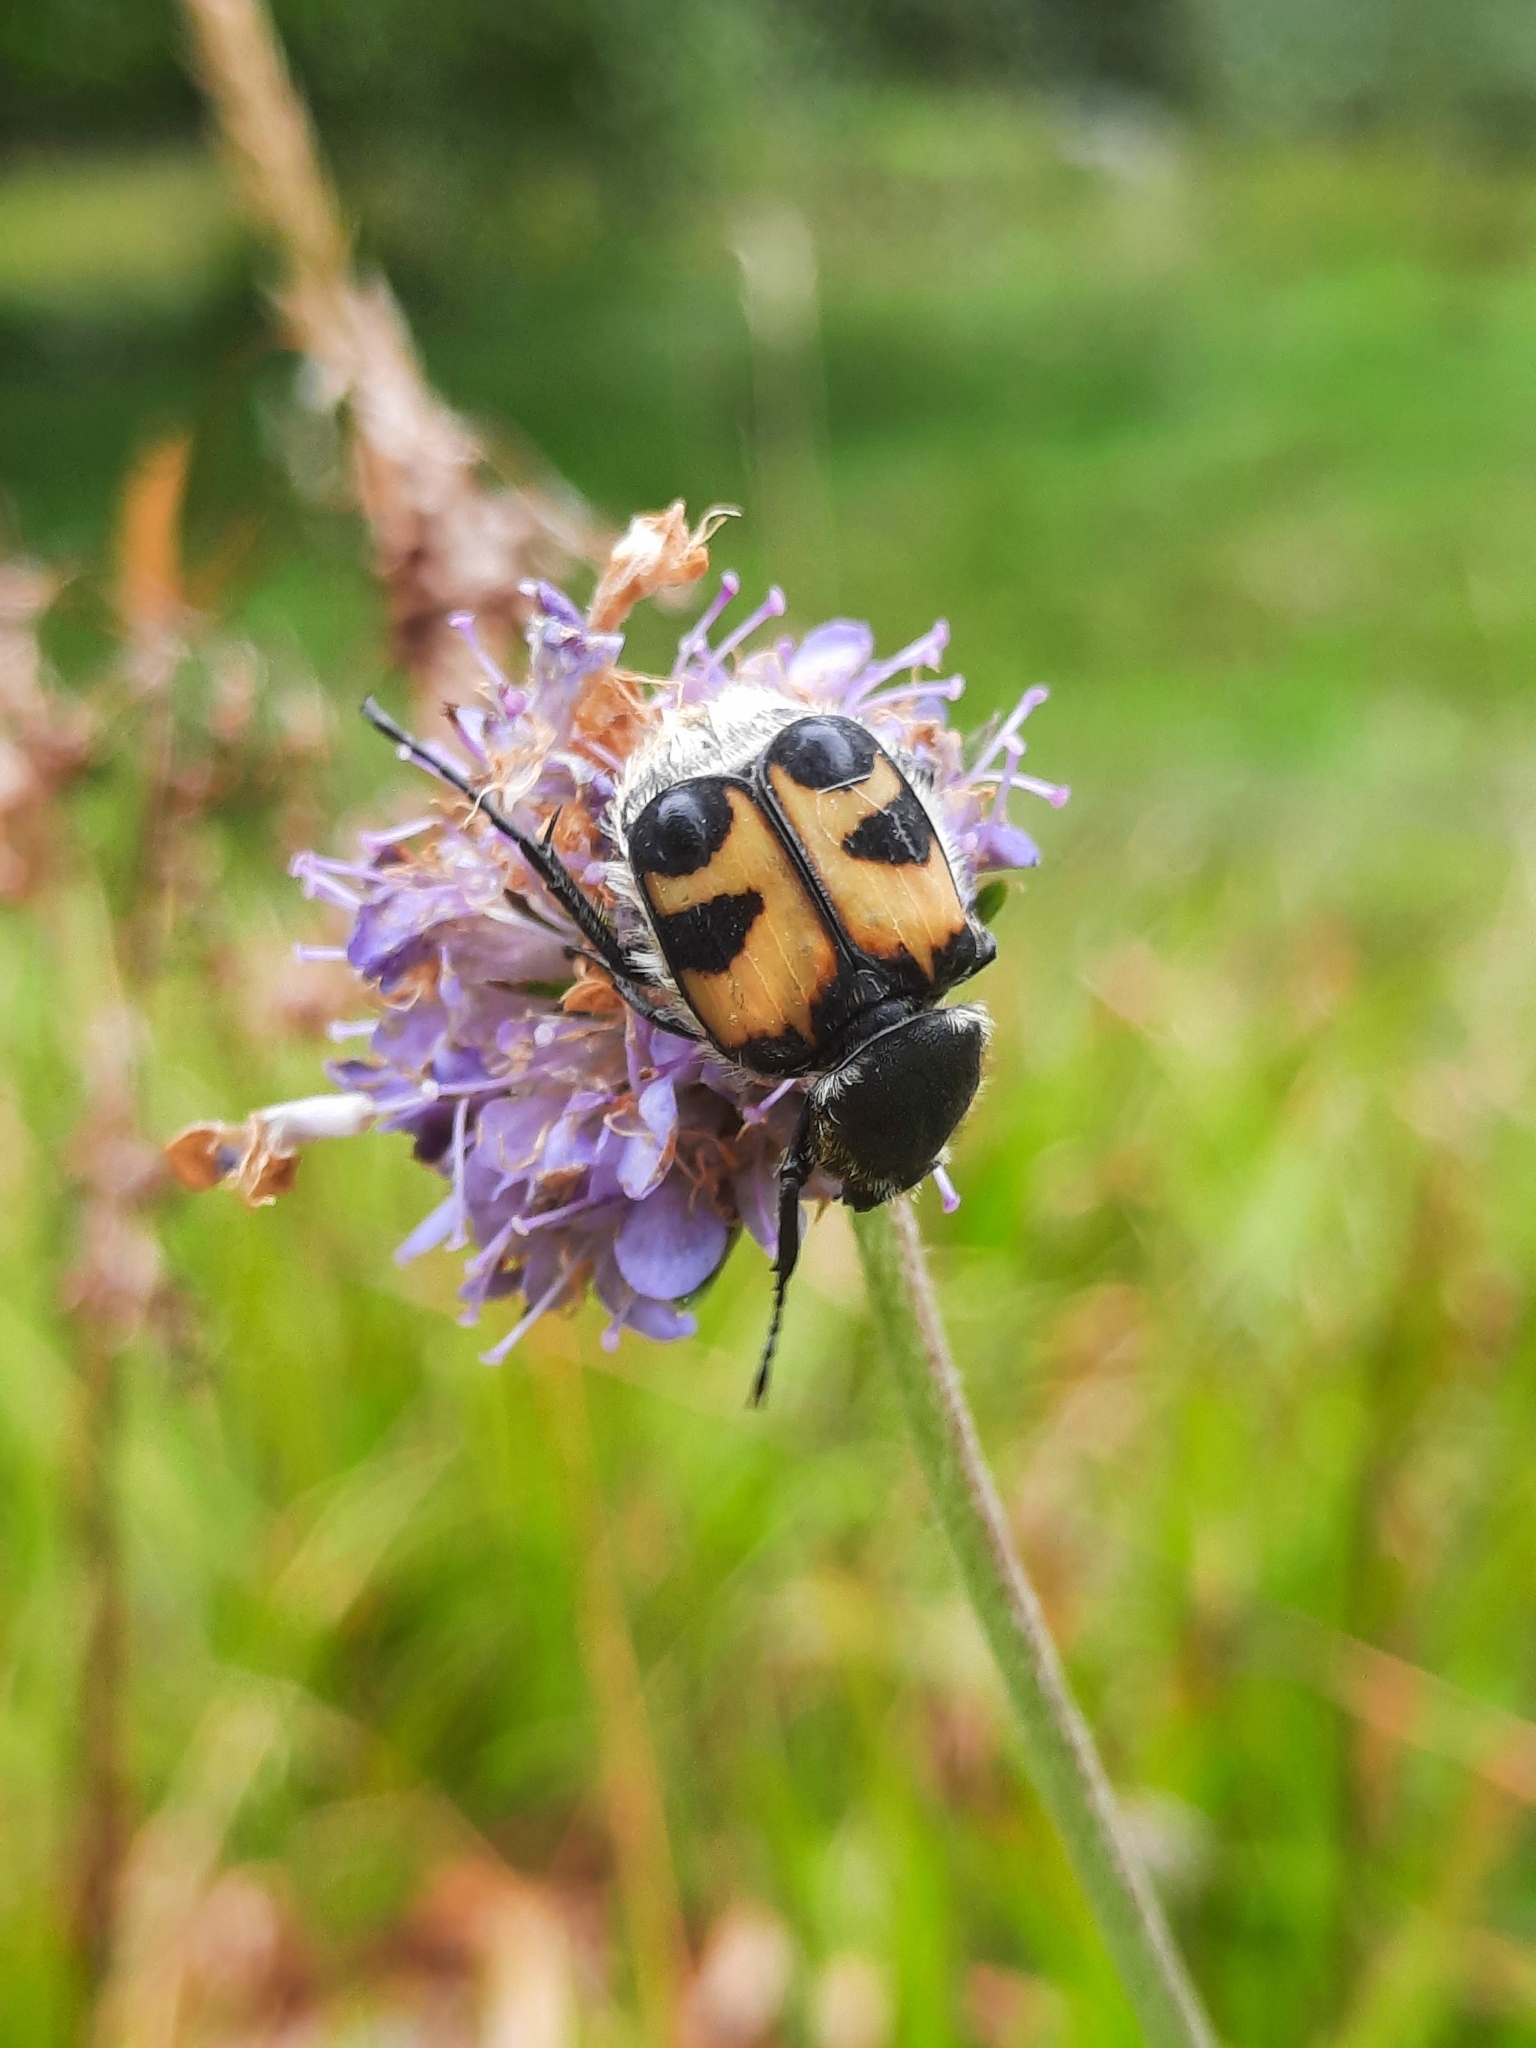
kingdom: Animalia
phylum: Arthropoda
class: Insecta
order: Coleoptera
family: Scarabaeidae
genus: Trichius
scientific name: Trichius fasciatus
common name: Bee beetle
